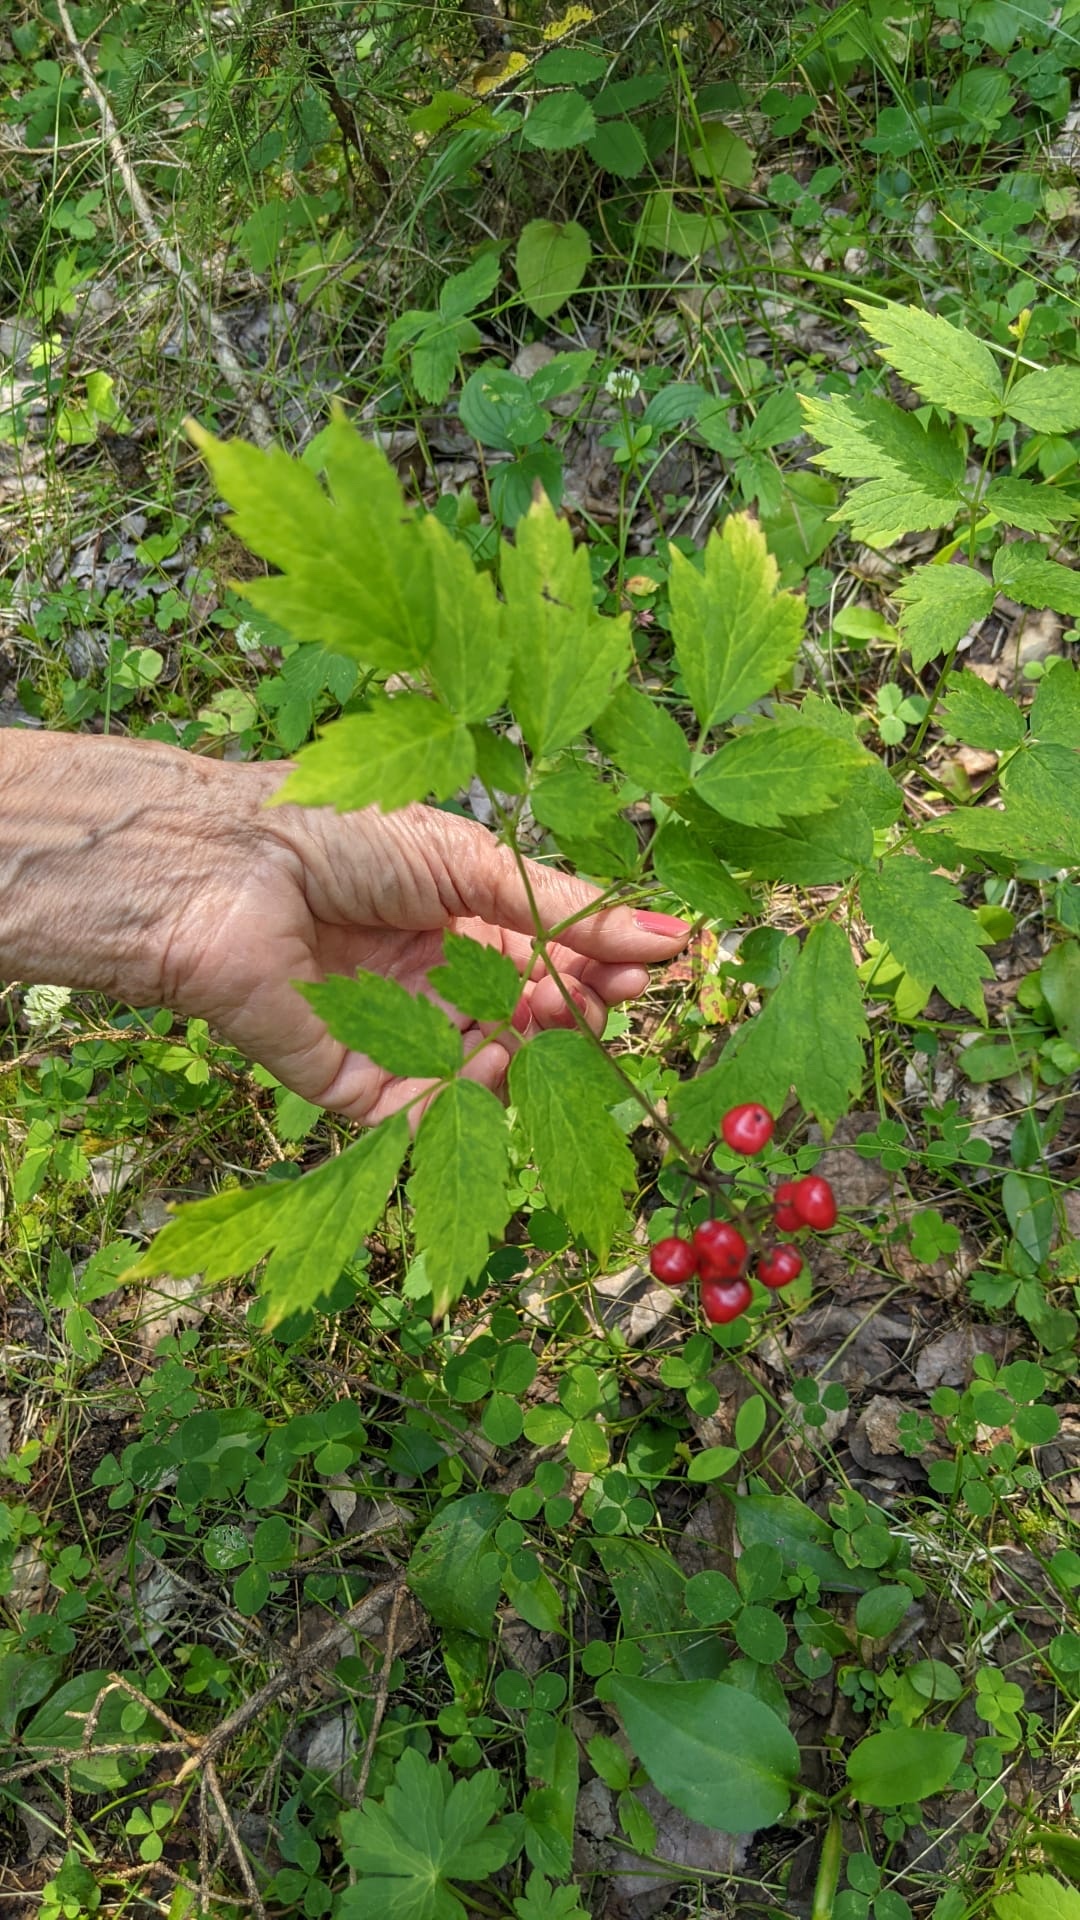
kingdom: Plantae
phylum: Tracheophyta
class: Magnoliopsida
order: Ranunculales
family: Ranunculaceae
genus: Actaea
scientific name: Actaea rubra
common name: Red baneberry
